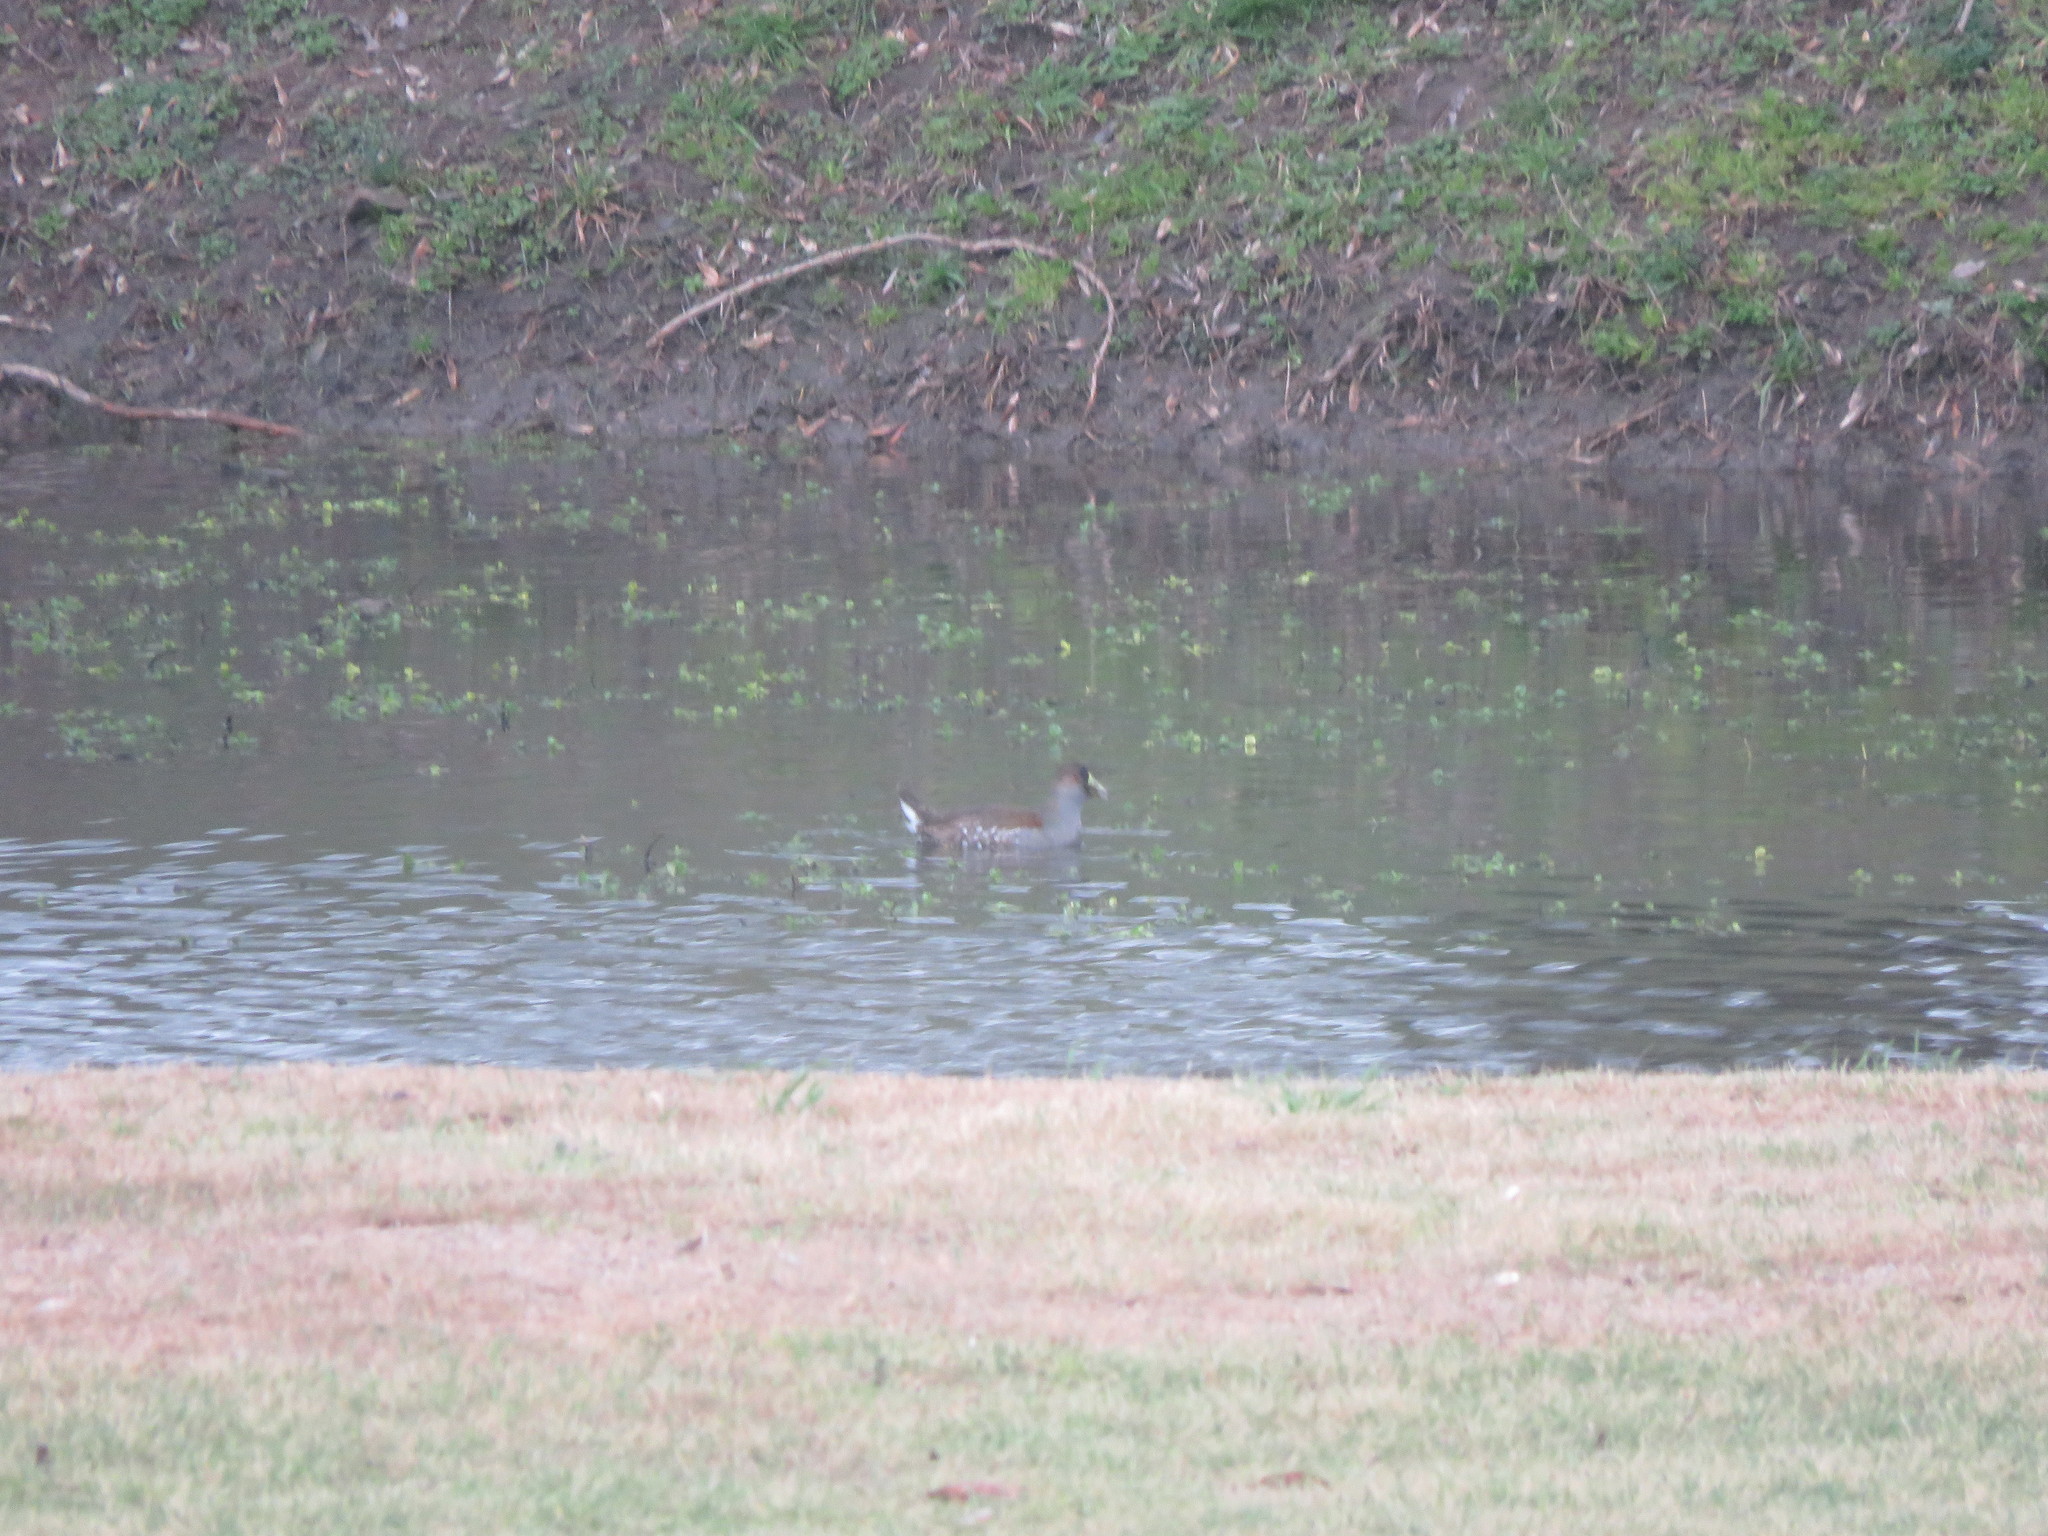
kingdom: Animalia
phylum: Chordata
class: Aves
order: Gruiformes
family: Rallidae
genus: Gallinula
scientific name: Gallinula melanops
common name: Spot-flanked gallinule
